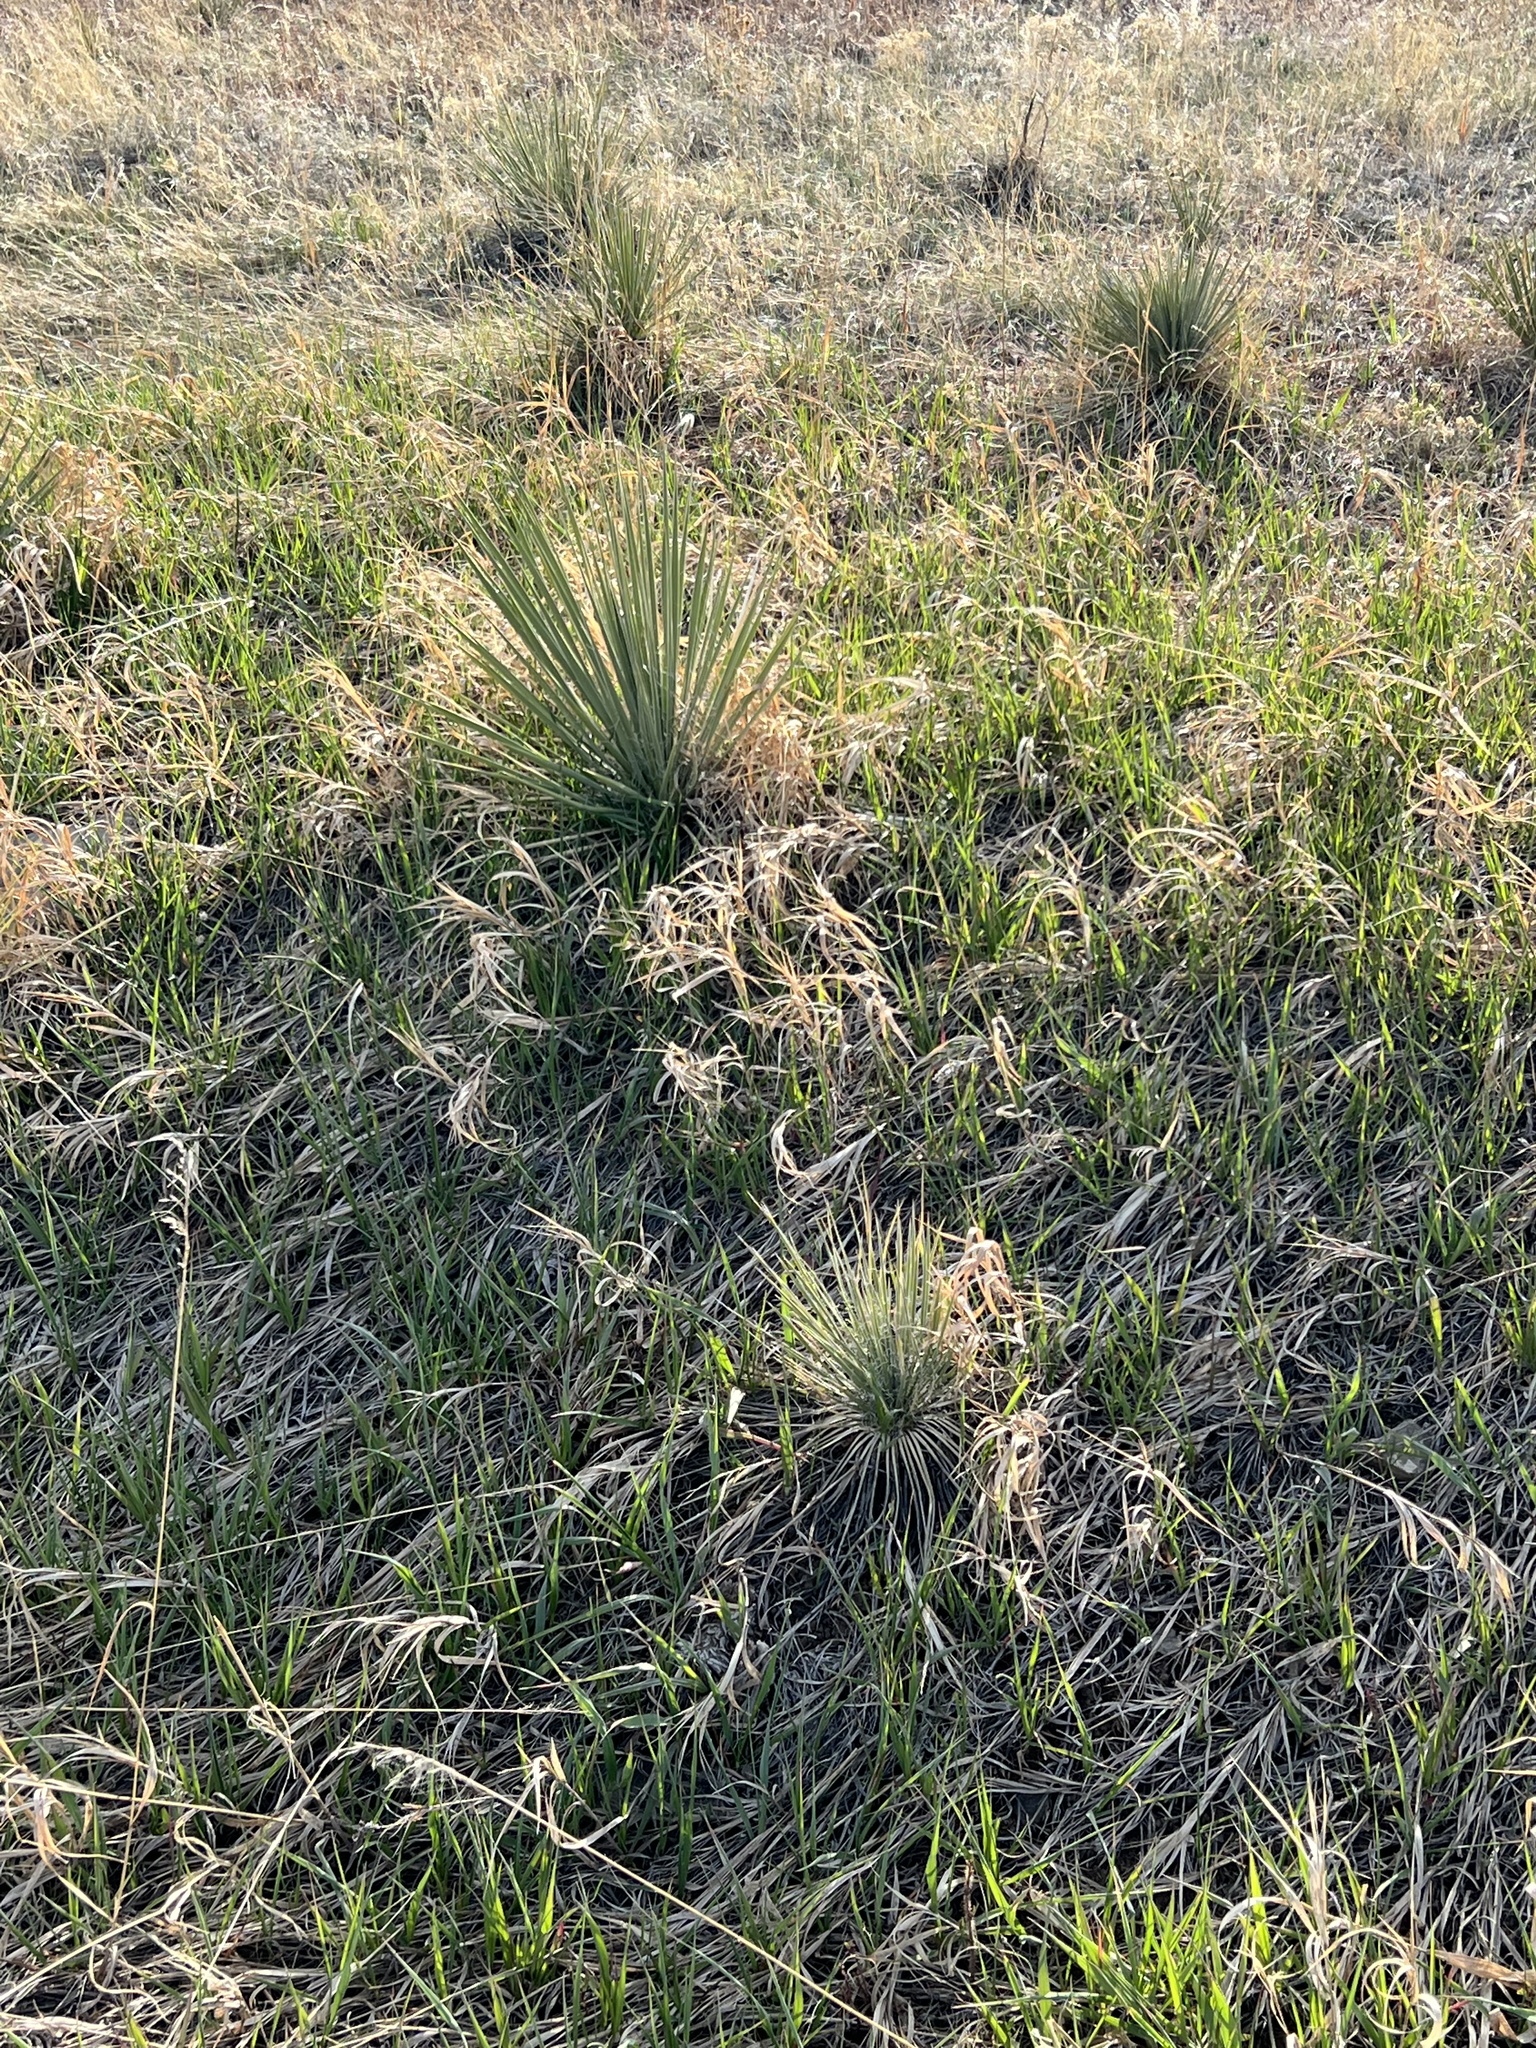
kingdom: Plantae
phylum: Tracheophyta
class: Liliopsida
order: Asparagales
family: Asparagaceae
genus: Yucca
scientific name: Yucca glauca
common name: Great plains yucca
